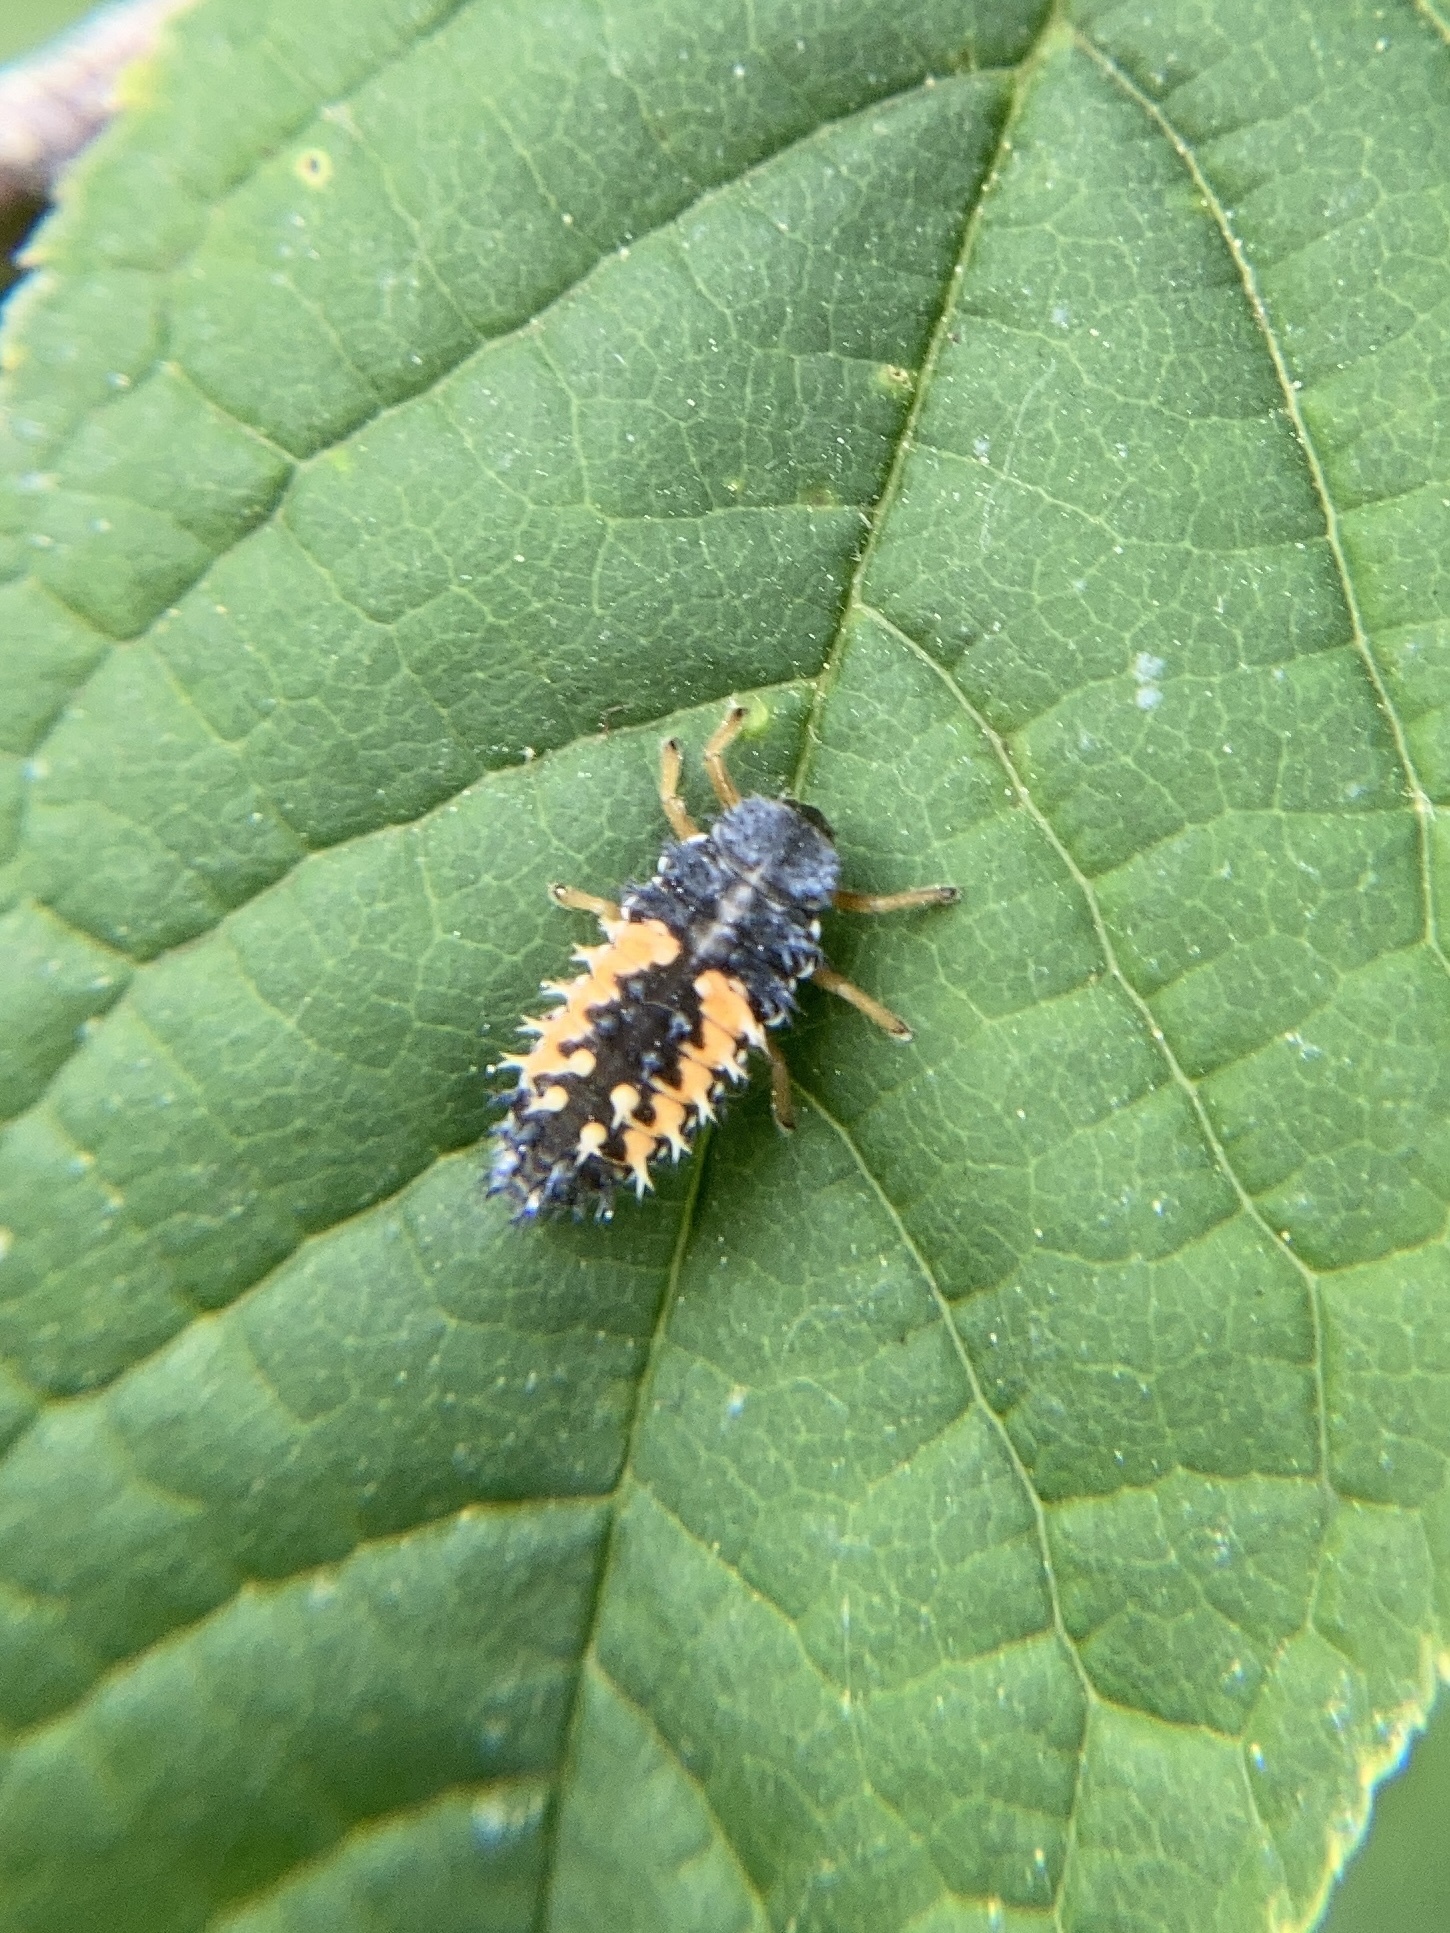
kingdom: Animalia
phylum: Arthropoda
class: Insecta
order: Coleoptera
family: Coccinellidae
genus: Harmonia
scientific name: Harmonia axyridis
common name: Harlequin ladybird
